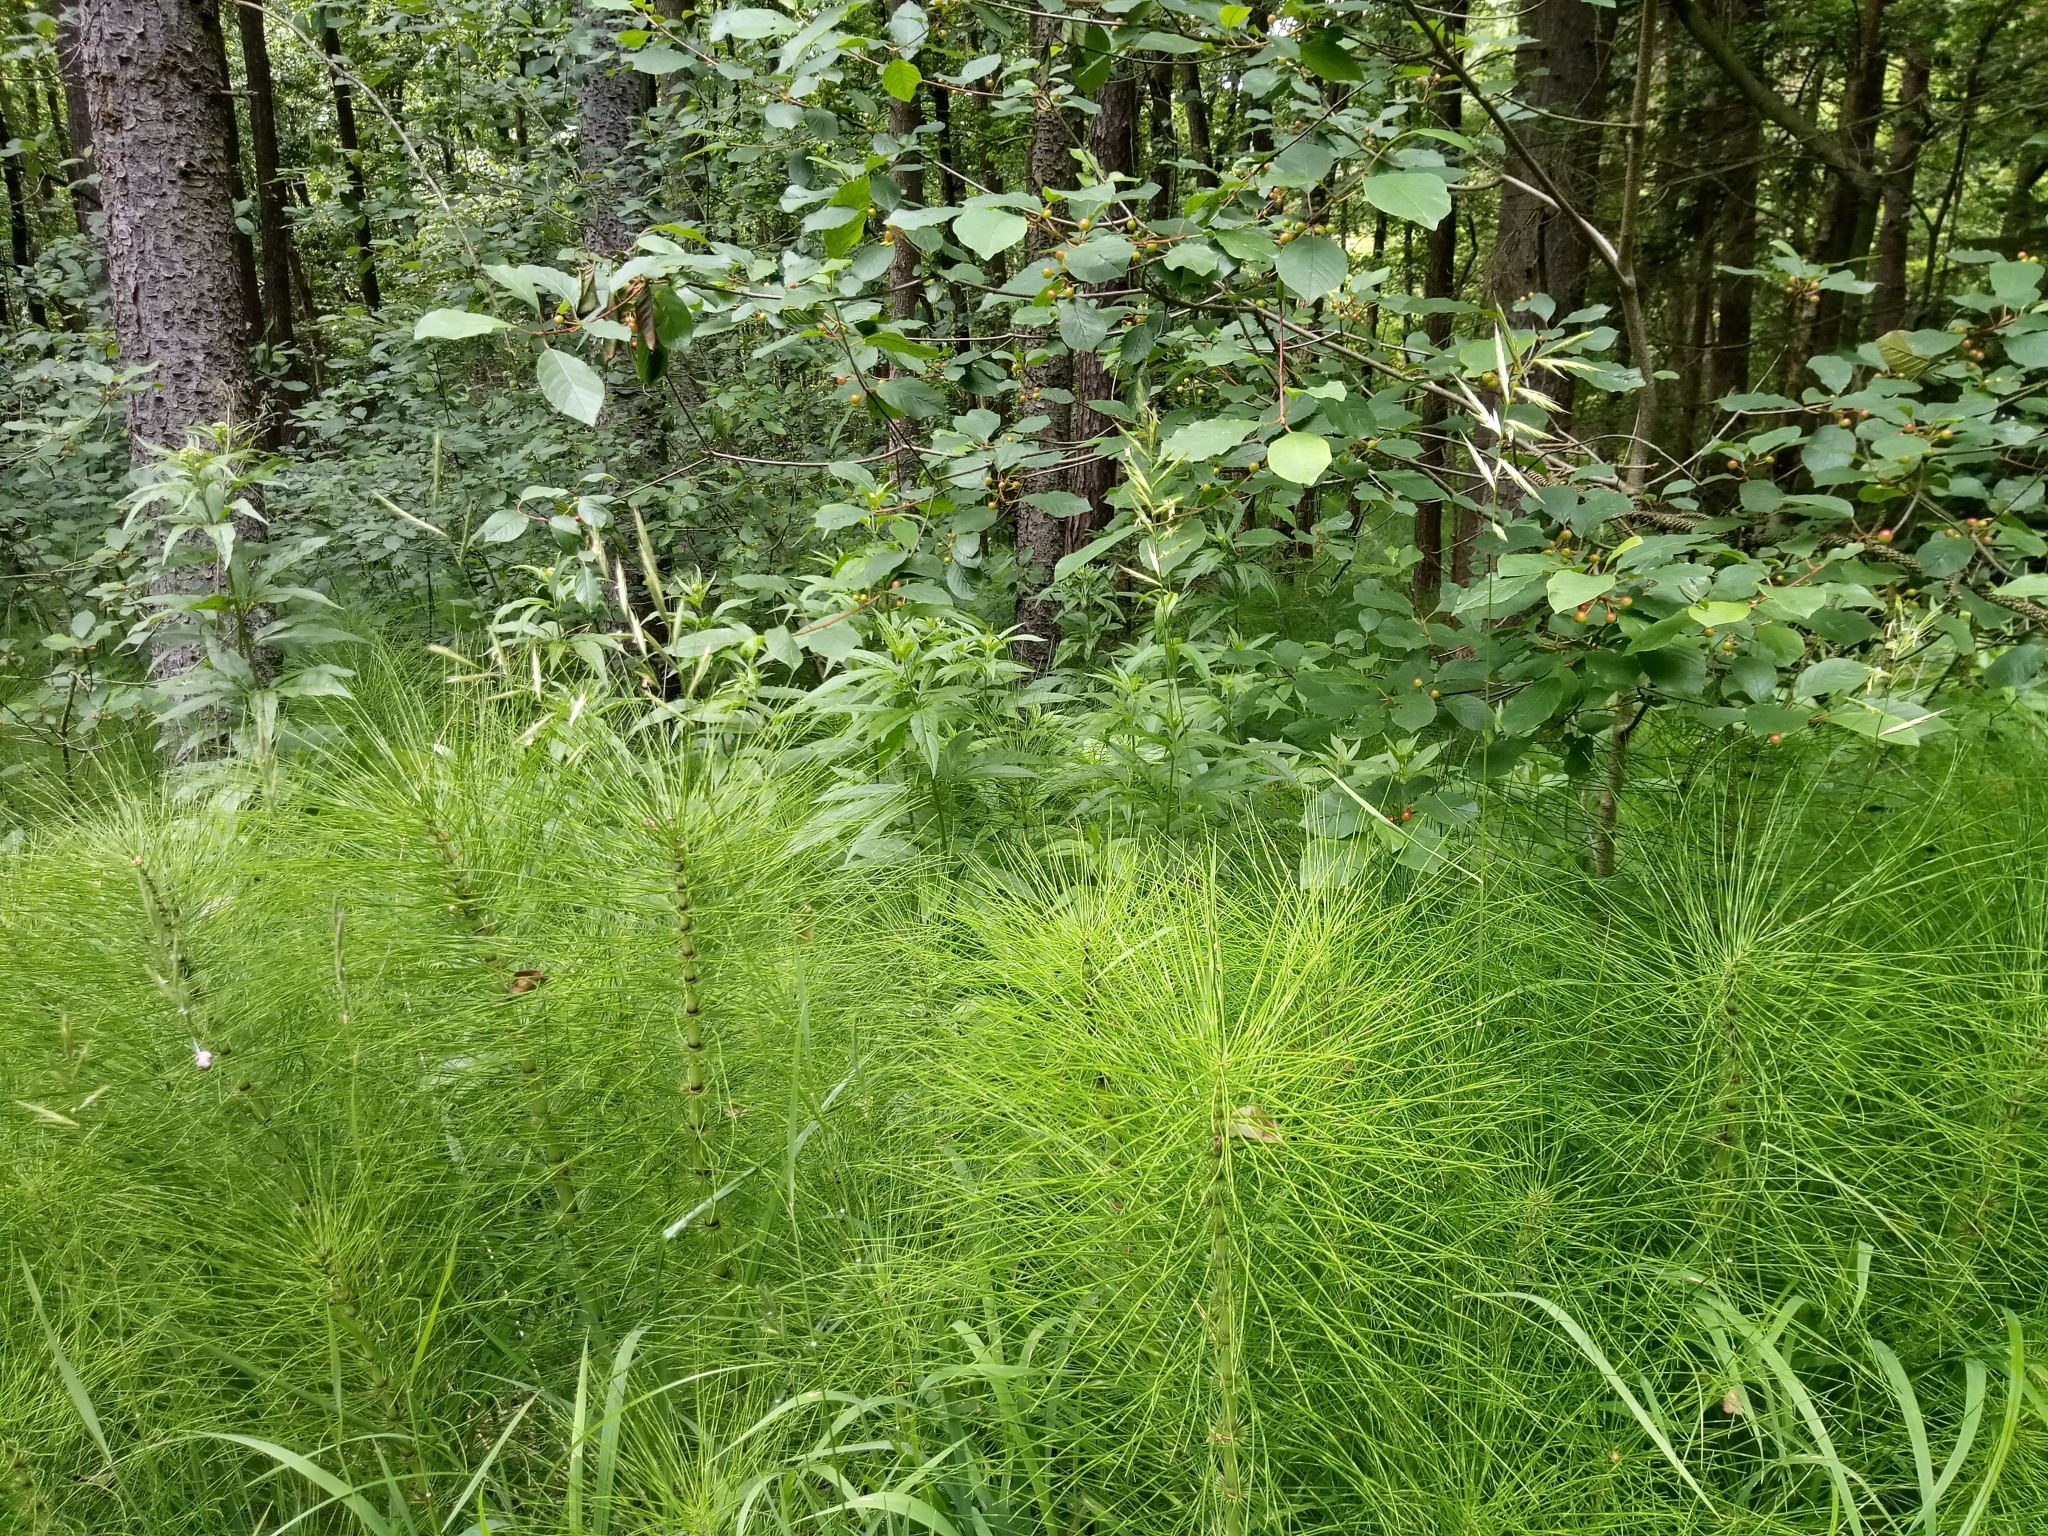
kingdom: Plantae
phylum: Tracheophyta
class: Polypodiopsida
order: Equisetales
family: Equisetaceae
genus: Equisetum
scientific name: Equisetum telmateia
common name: Great horsetail
